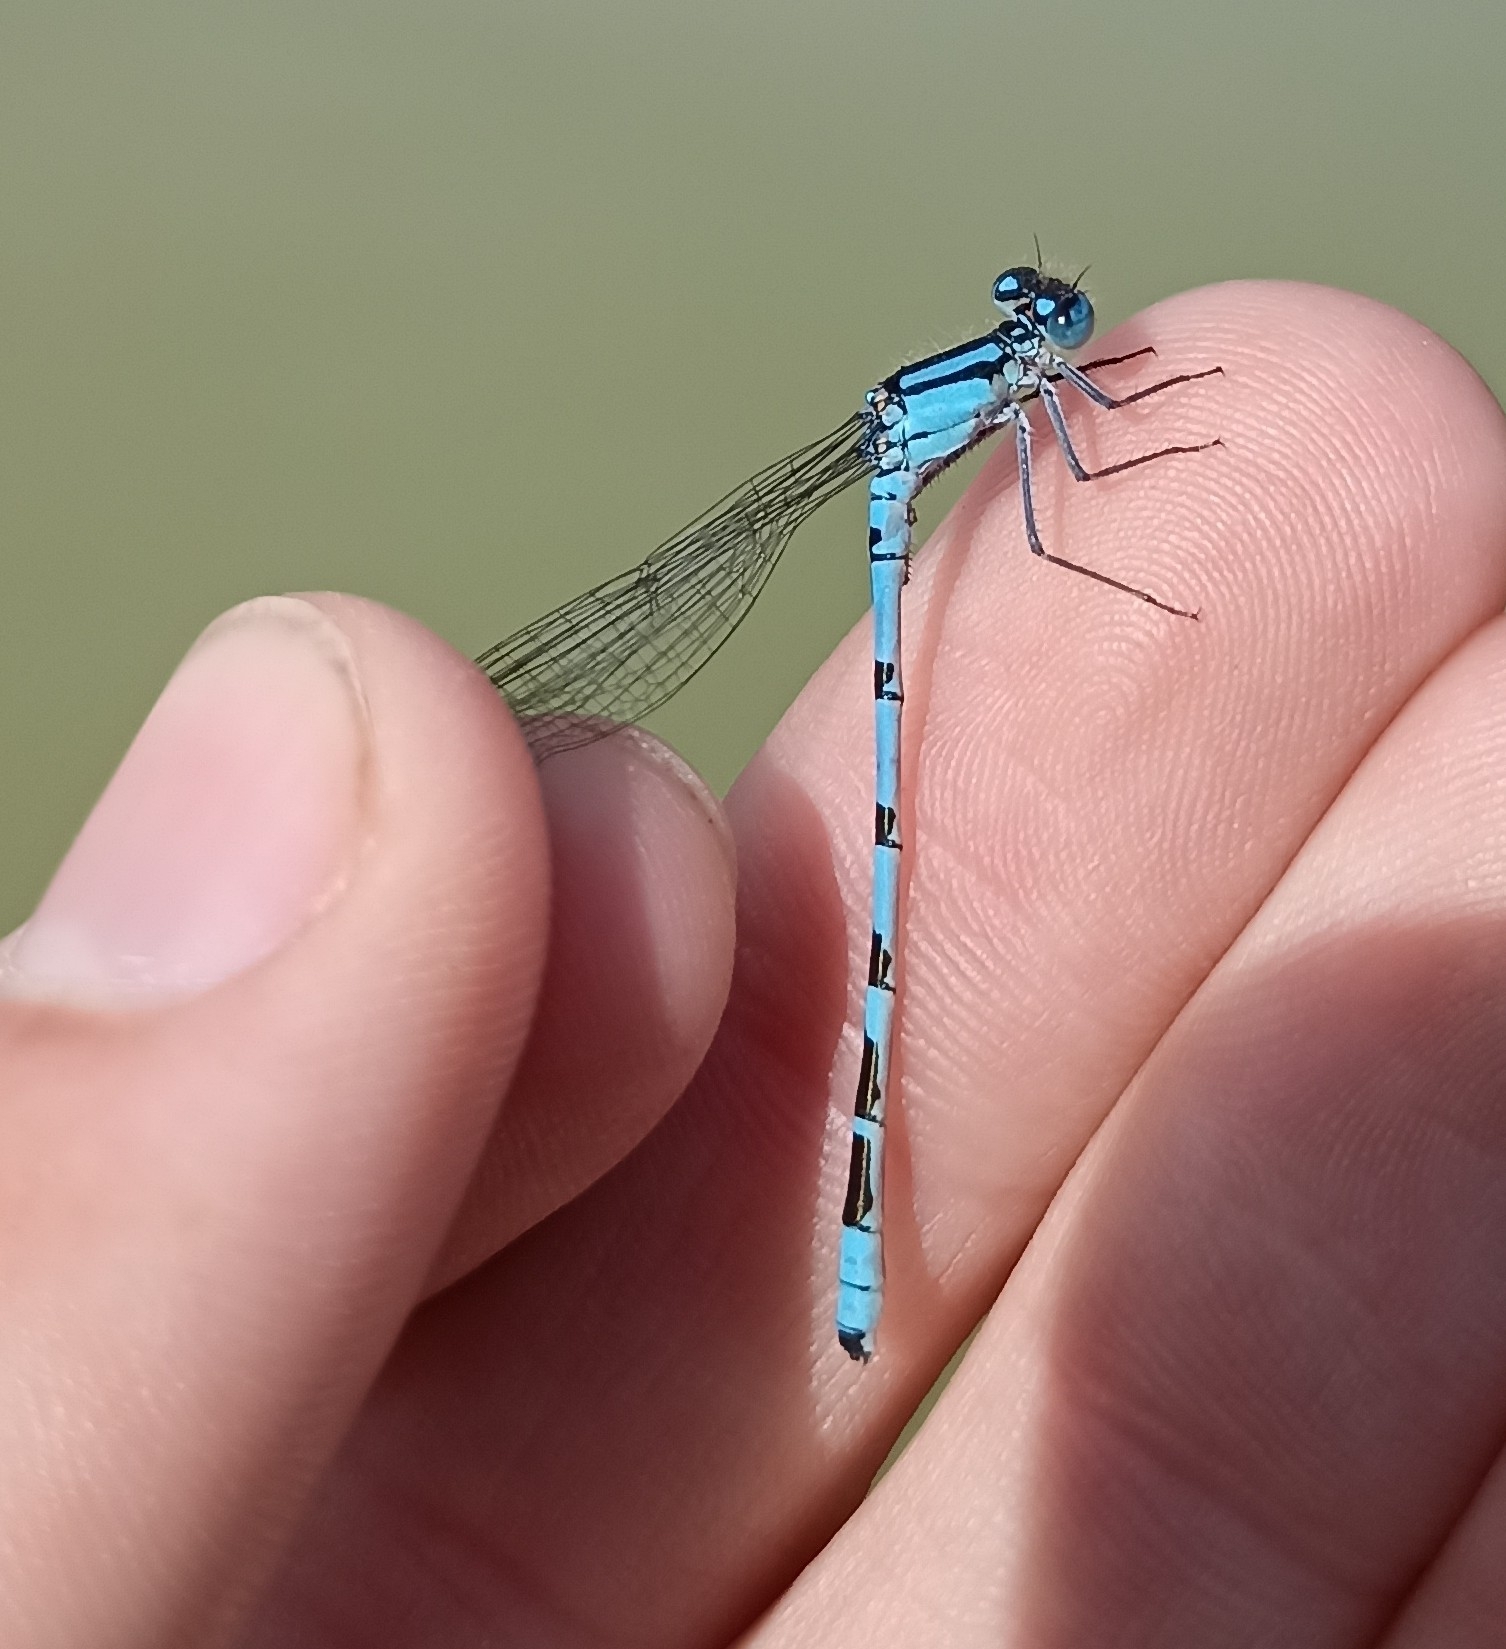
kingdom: Animalia
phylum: Arthropoda
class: Insecta
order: Odonata
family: Coenagrionidae
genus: Enallagma
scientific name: Enallagma cyathigerum
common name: Common blue damselfly
